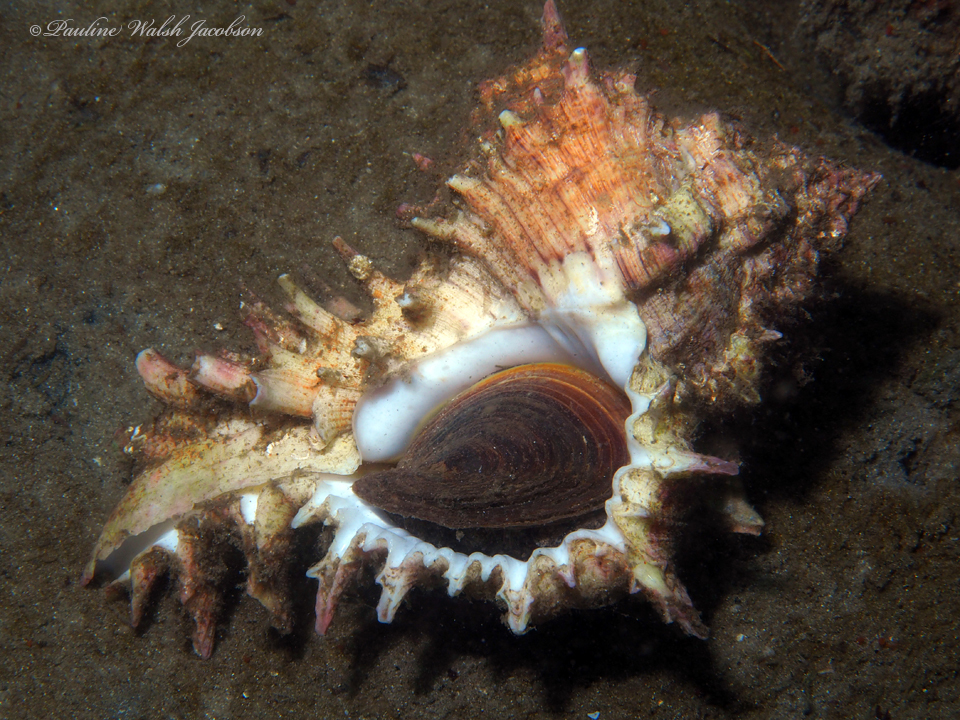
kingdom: Animalia
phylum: Mollusca
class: Gastropoda
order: Neogastropoda
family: Muricidae
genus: Hexaplex
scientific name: Hexaplex fulvescens
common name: Tawny murex
